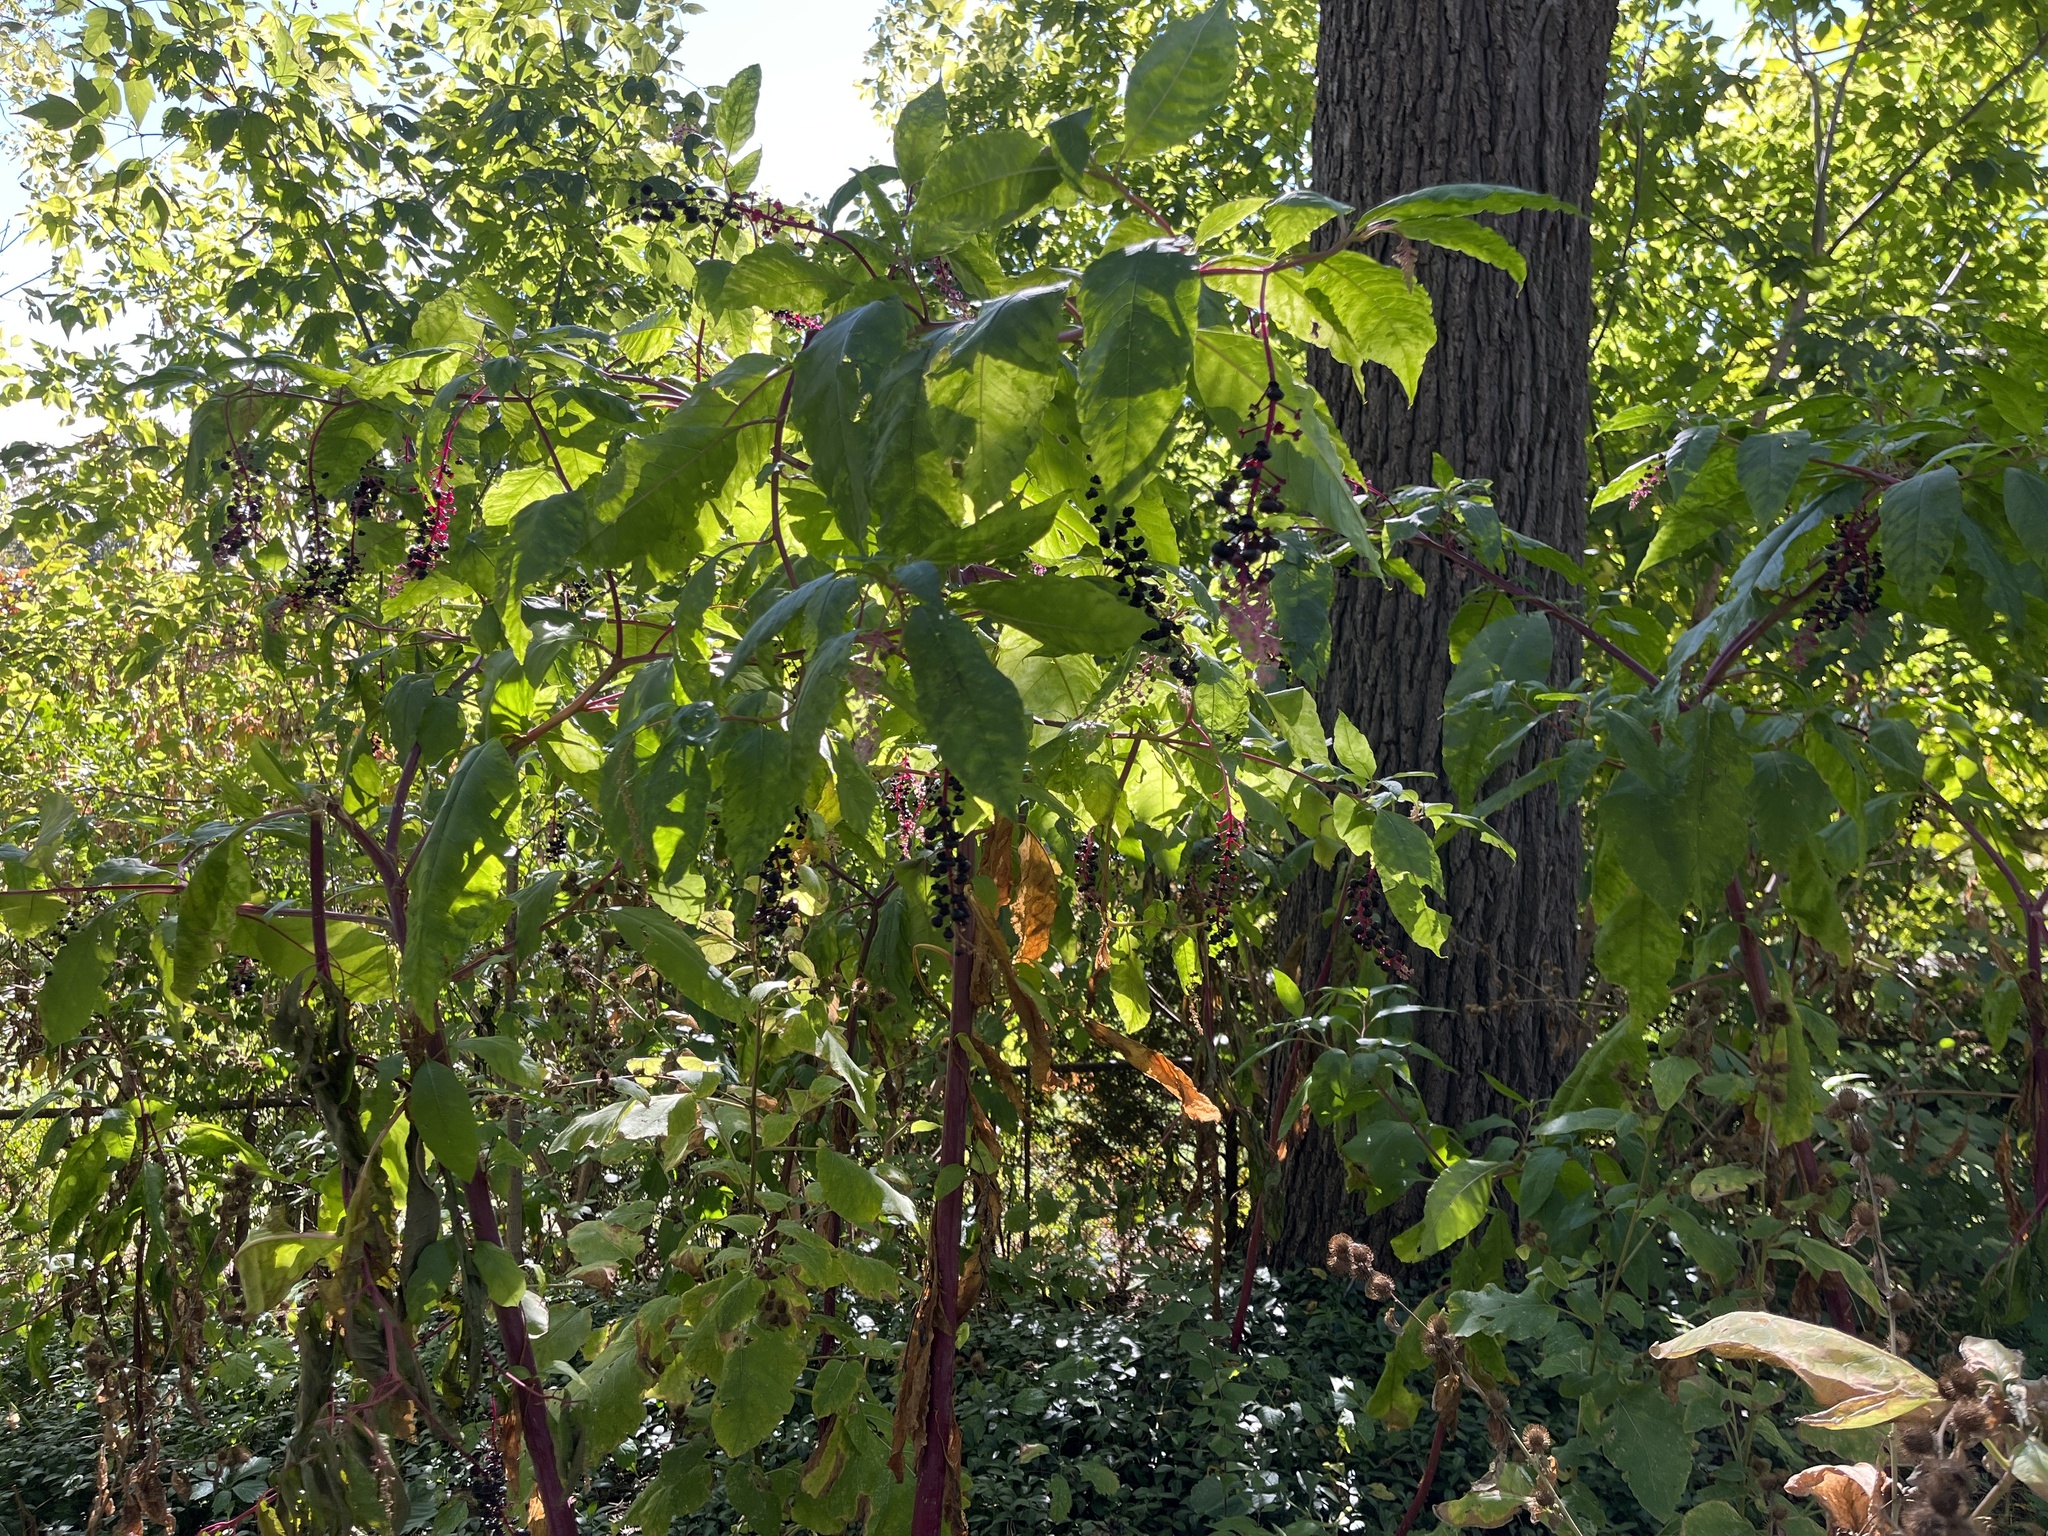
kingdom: Plantae
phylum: Tracheophyta
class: Magnoliopsida
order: Caryophyllales
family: Phytolaccaceae
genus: Phytolacca
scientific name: Phytolacca americana
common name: American pokeweed
